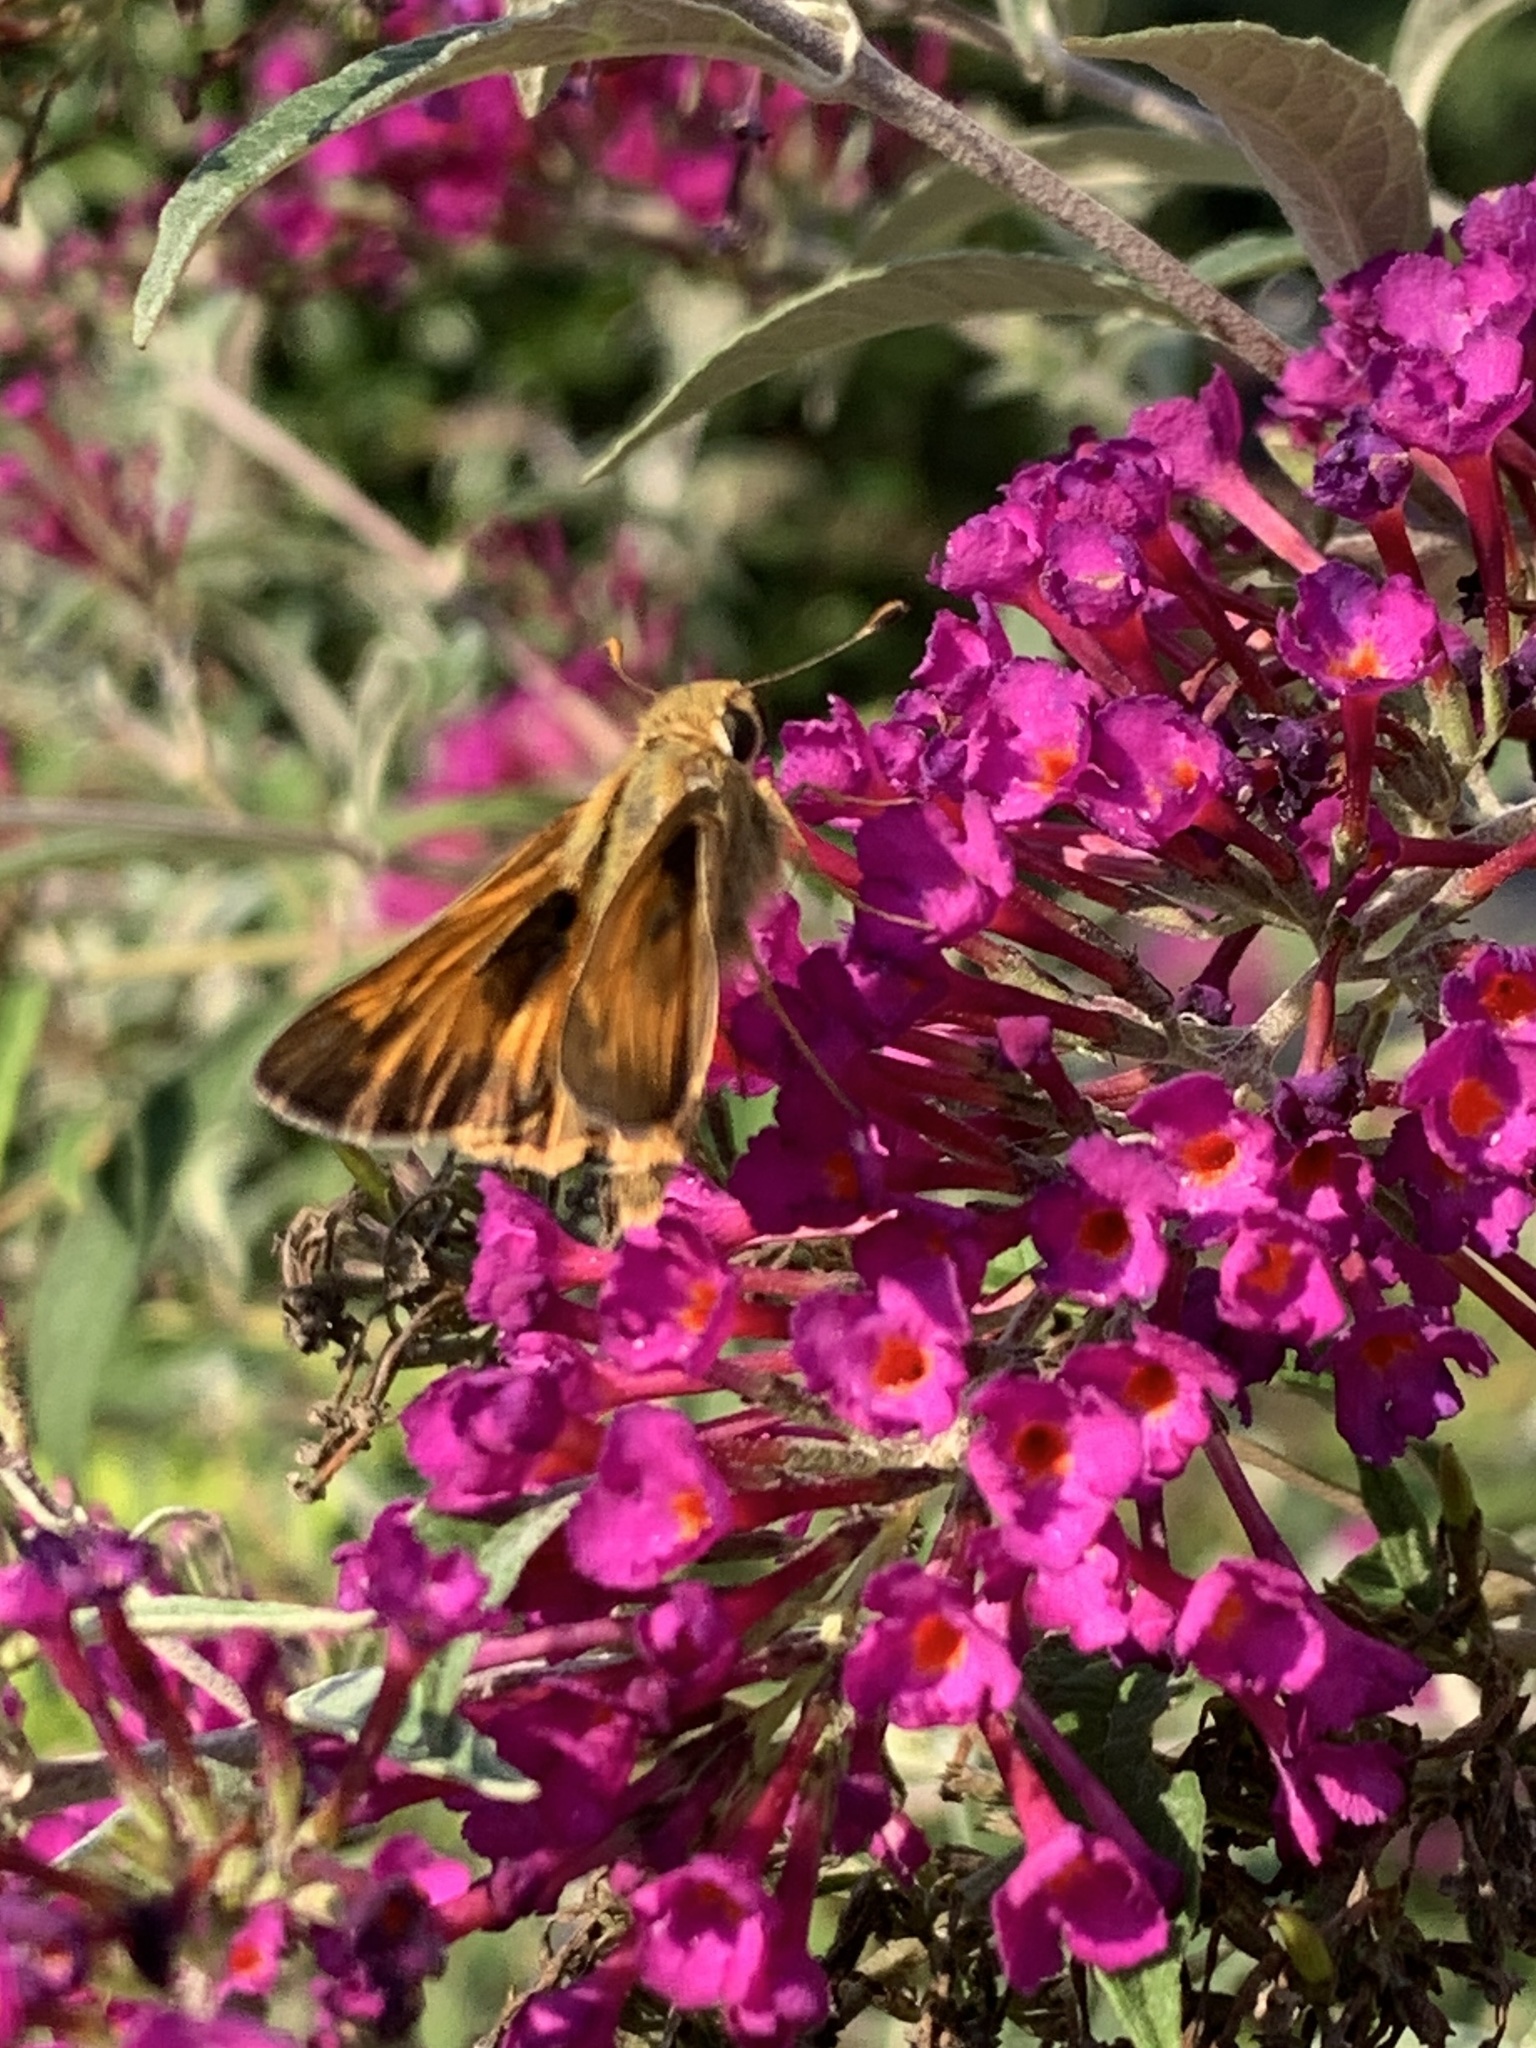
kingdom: Animalia
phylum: Arthropoda
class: Insecta
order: Lepidoptera
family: Hesperiidae
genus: Atalopedes
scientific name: Atalopedes
